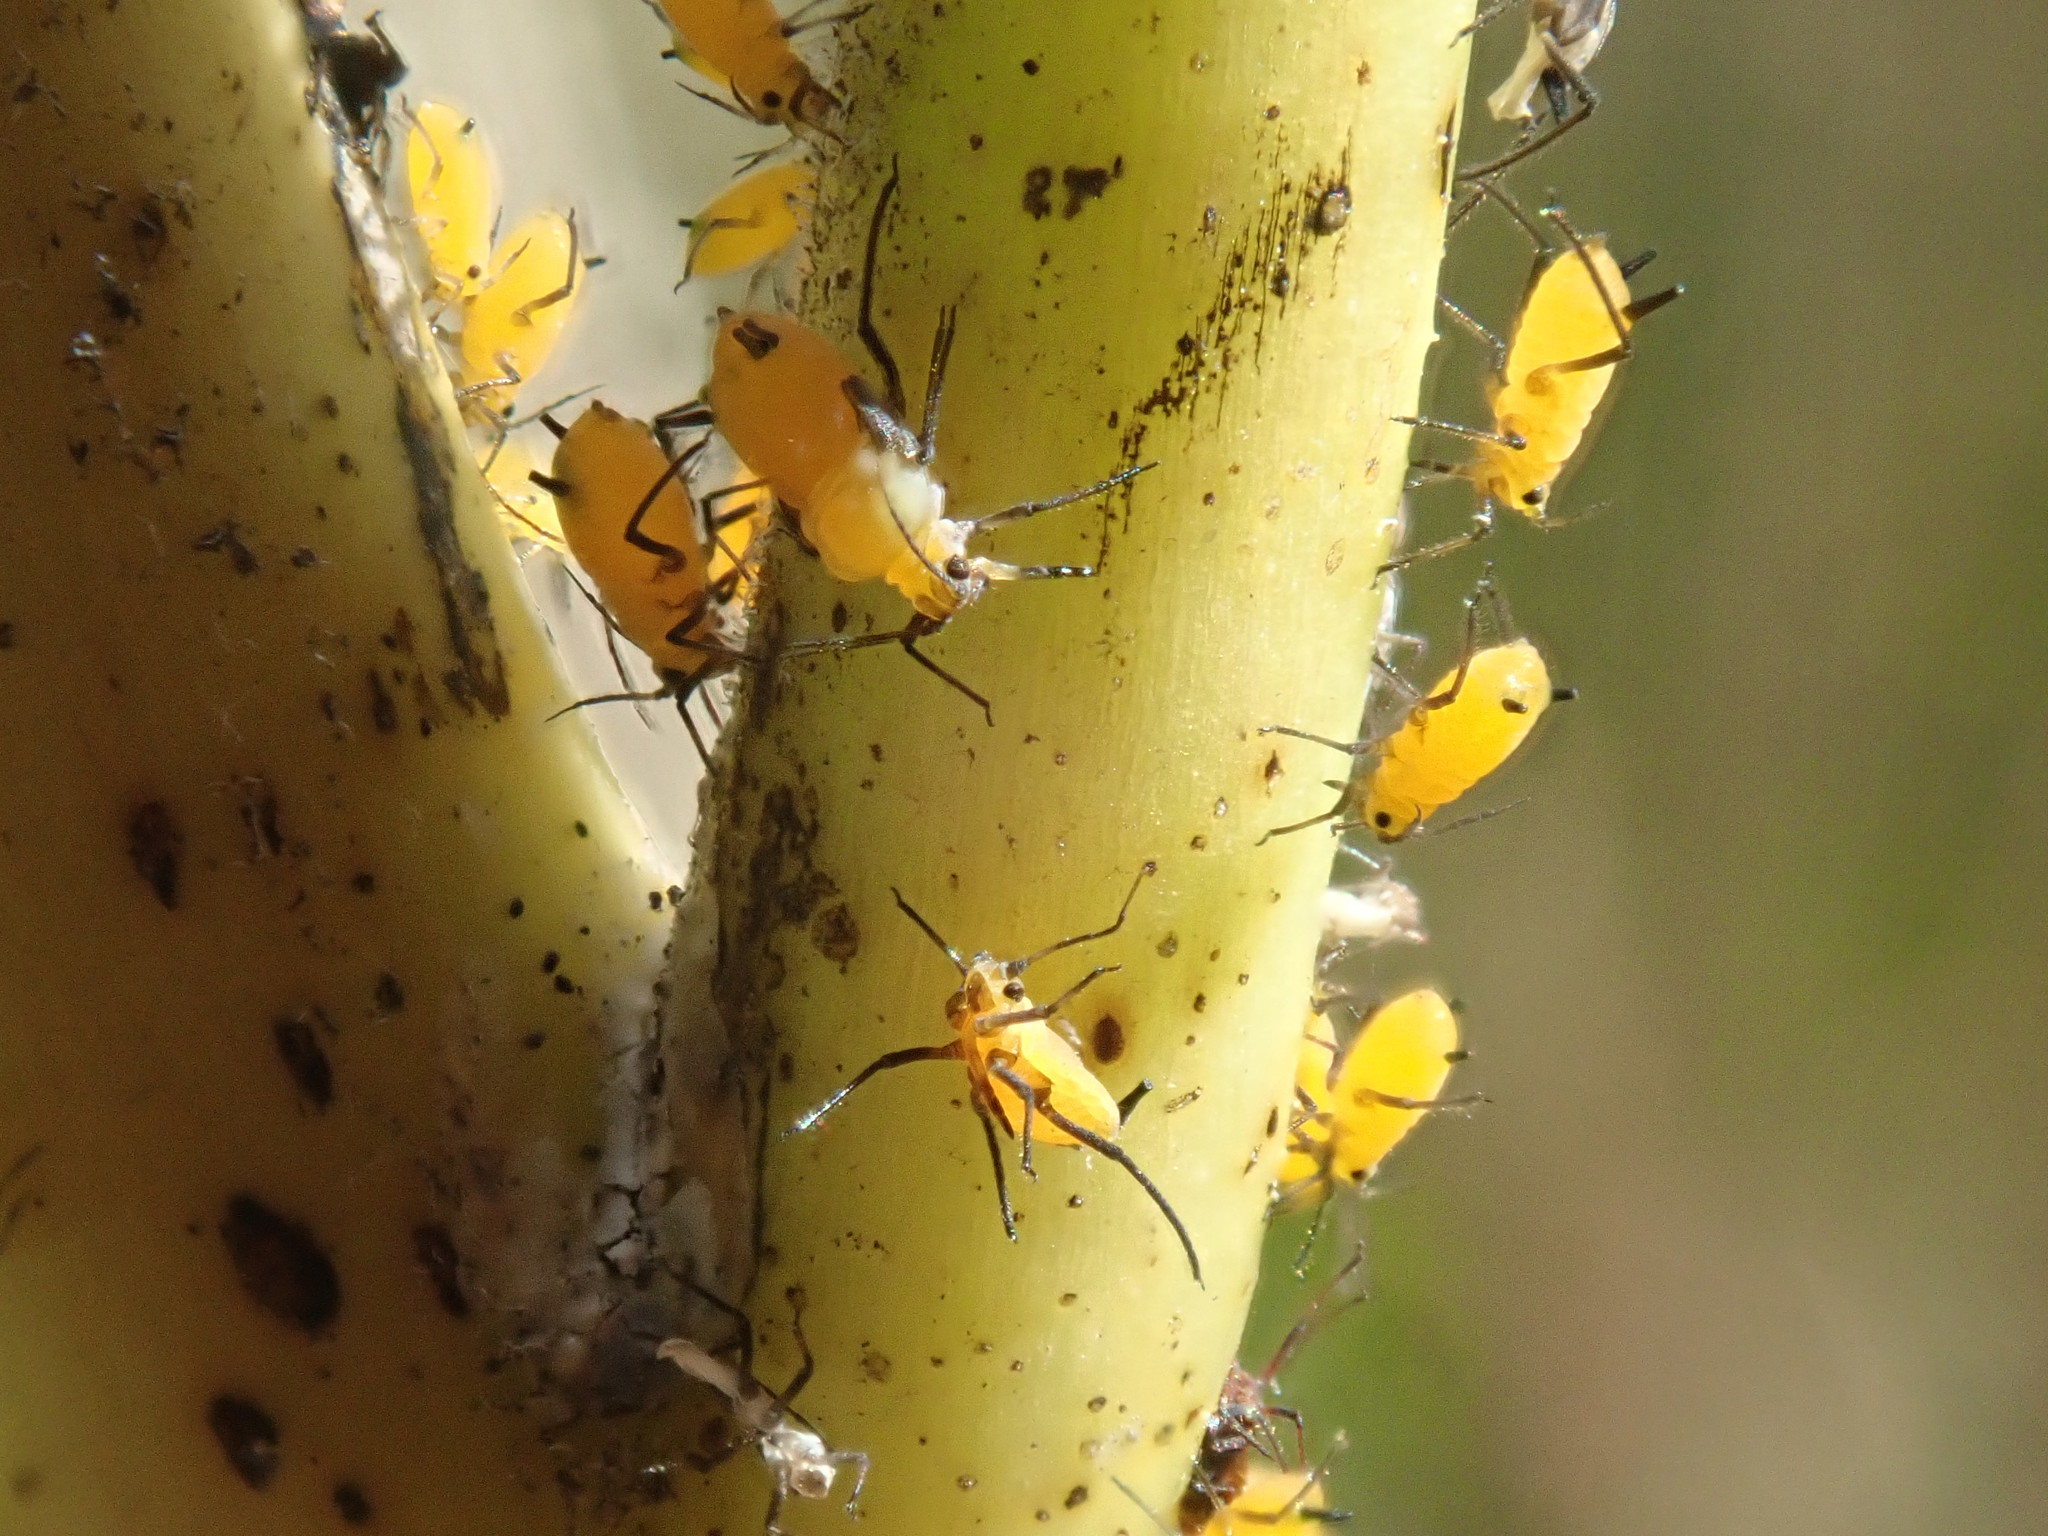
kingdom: Animalia
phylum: Arthropoda
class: Insecta
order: Hemiptera
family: Aphididae
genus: Aphis
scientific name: Aphis nerii
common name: Oleander aphid
